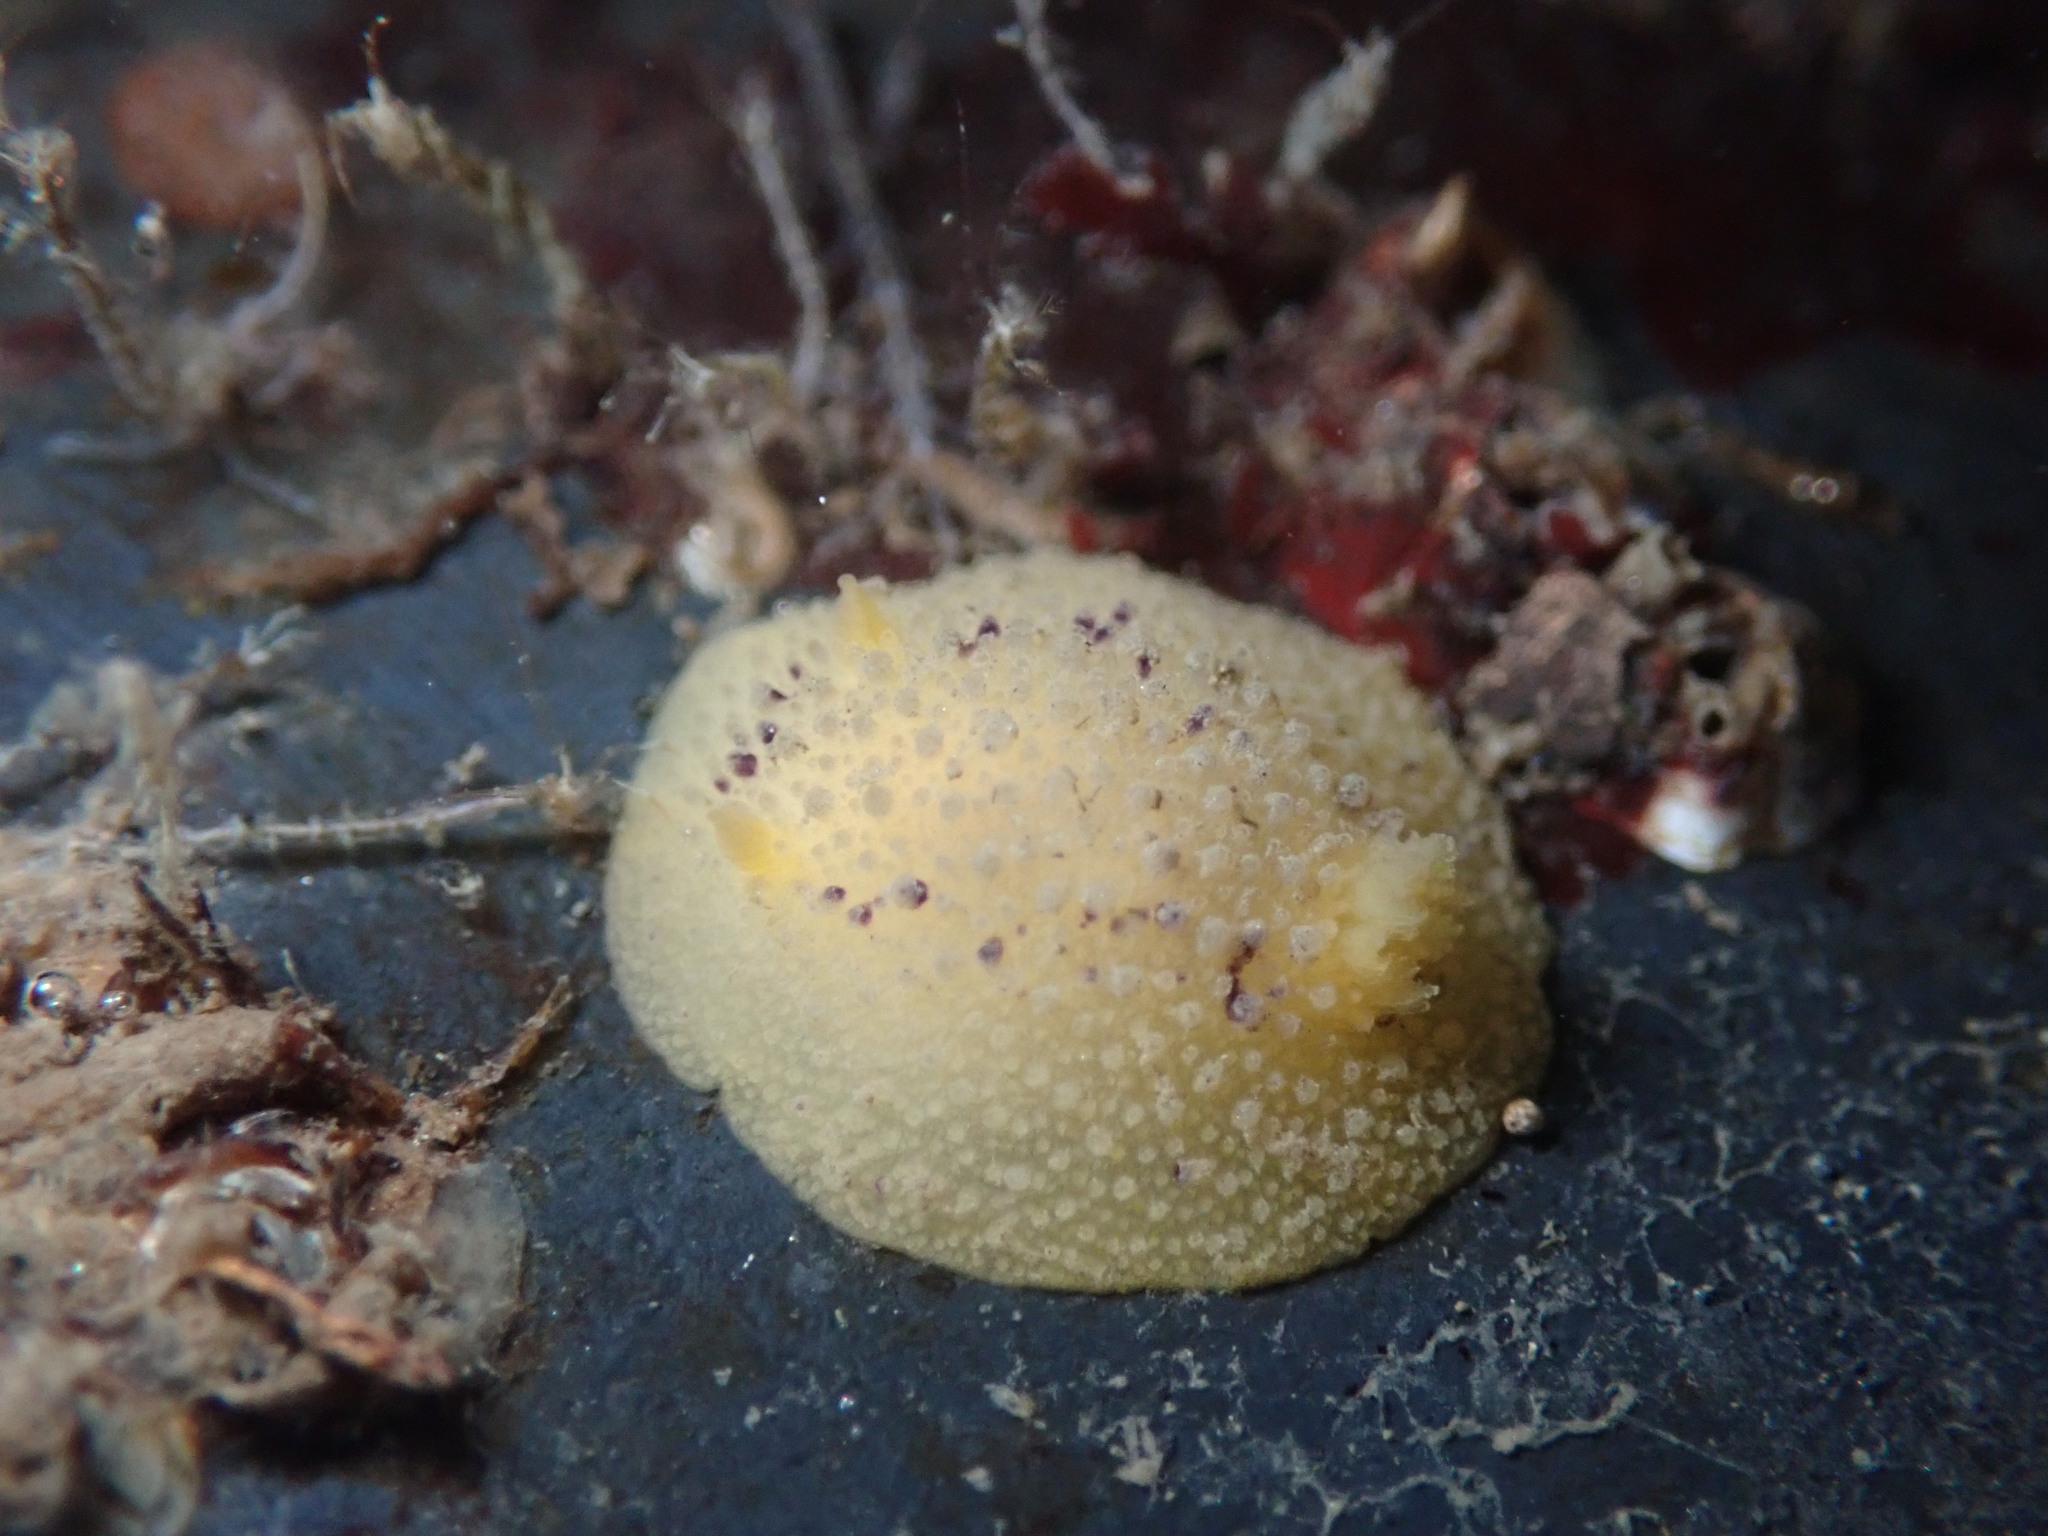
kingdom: Animalia
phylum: Mollusca
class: Gastropoda
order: Nudibranchia
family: Dorididae
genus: Doris
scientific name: Doris montereyensis
